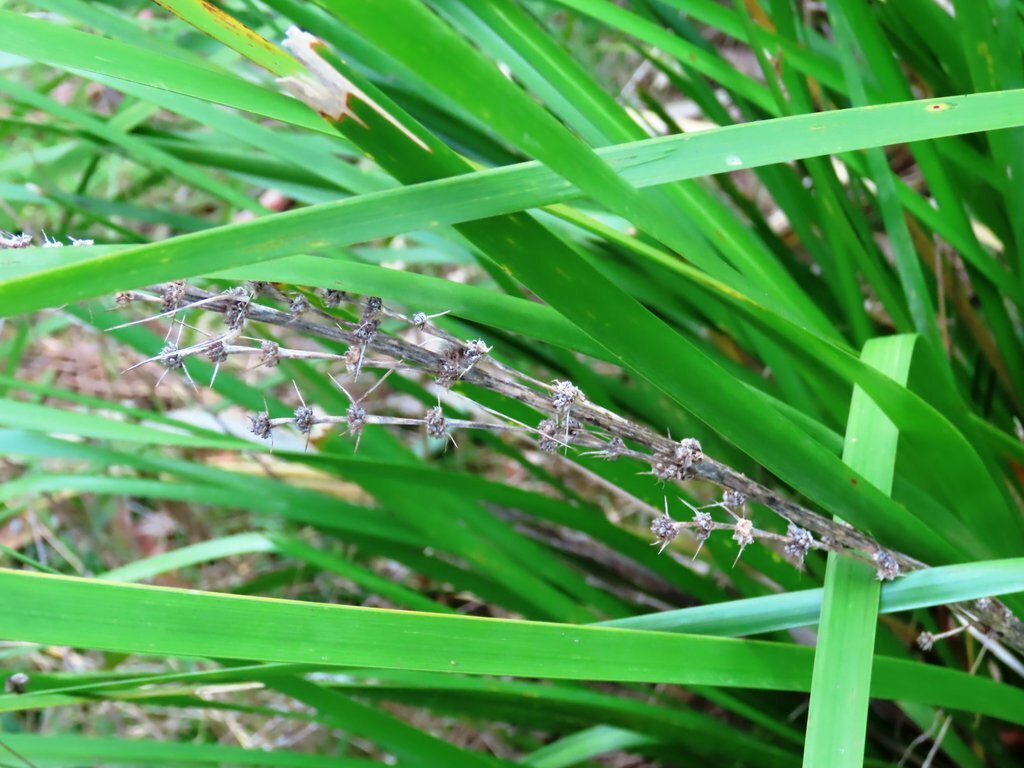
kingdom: Plantae
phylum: Tracheophyta
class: Liliopsida
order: Asparagales
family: Asparagaceae
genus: Lomandra
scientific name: Lomandra longifolia
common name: Longleaf mat-rush
